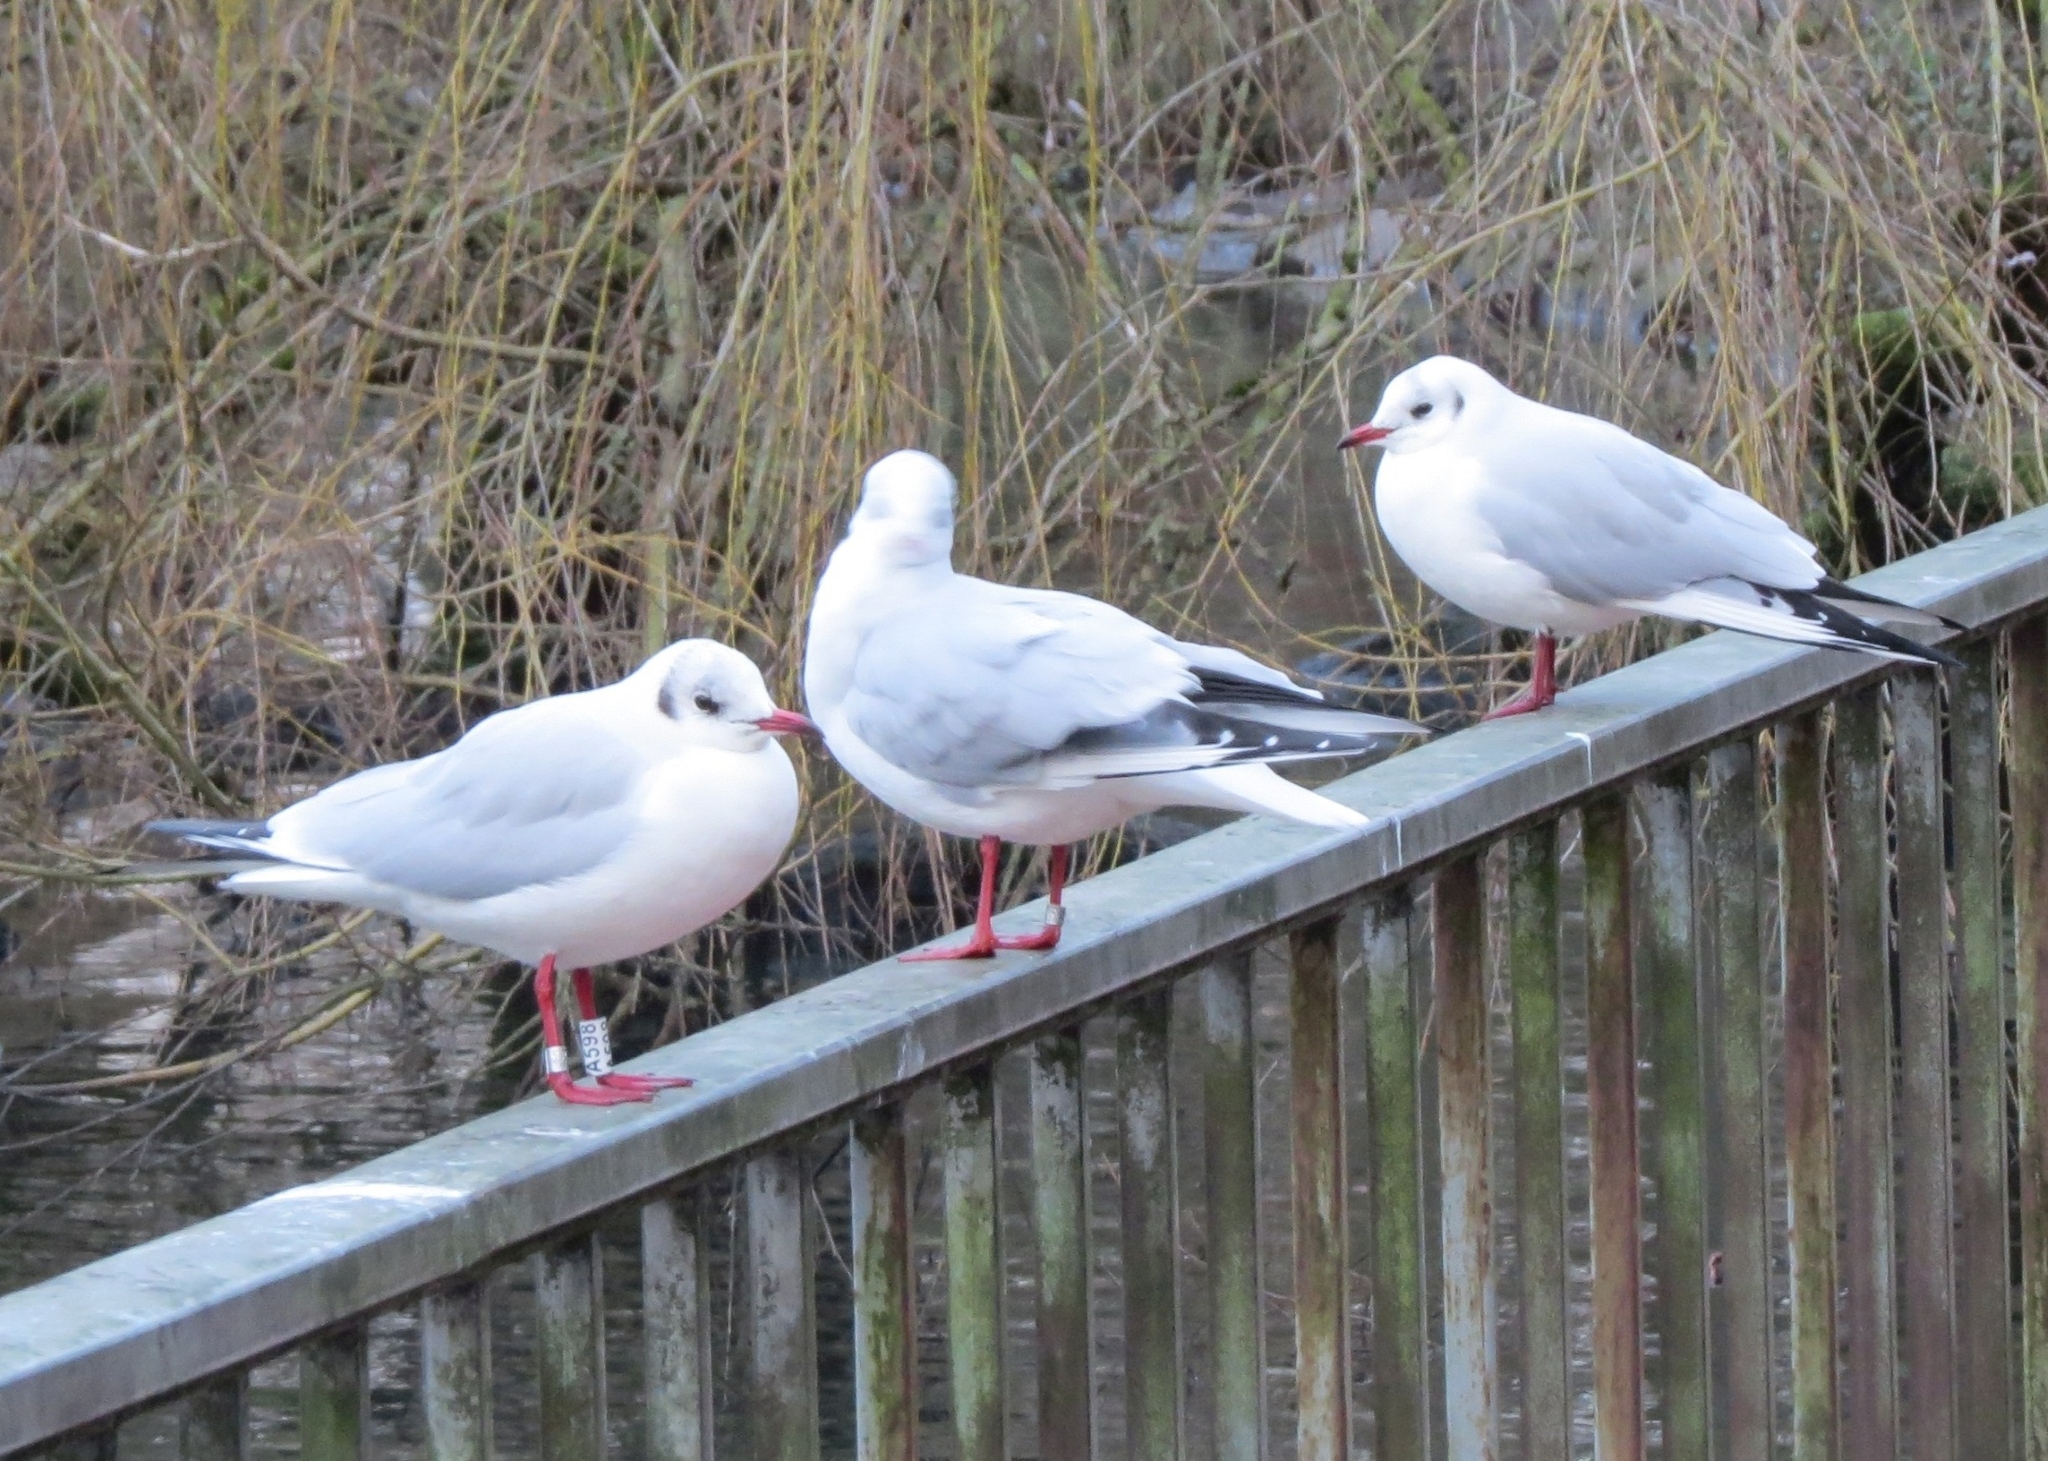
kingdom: Animalia
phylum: Chordata
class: Aves
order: Charadriiformes
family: Laridae
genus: Chroicocephalus
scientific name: Chroicocephalus ridibundus
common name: Black-headed gull
